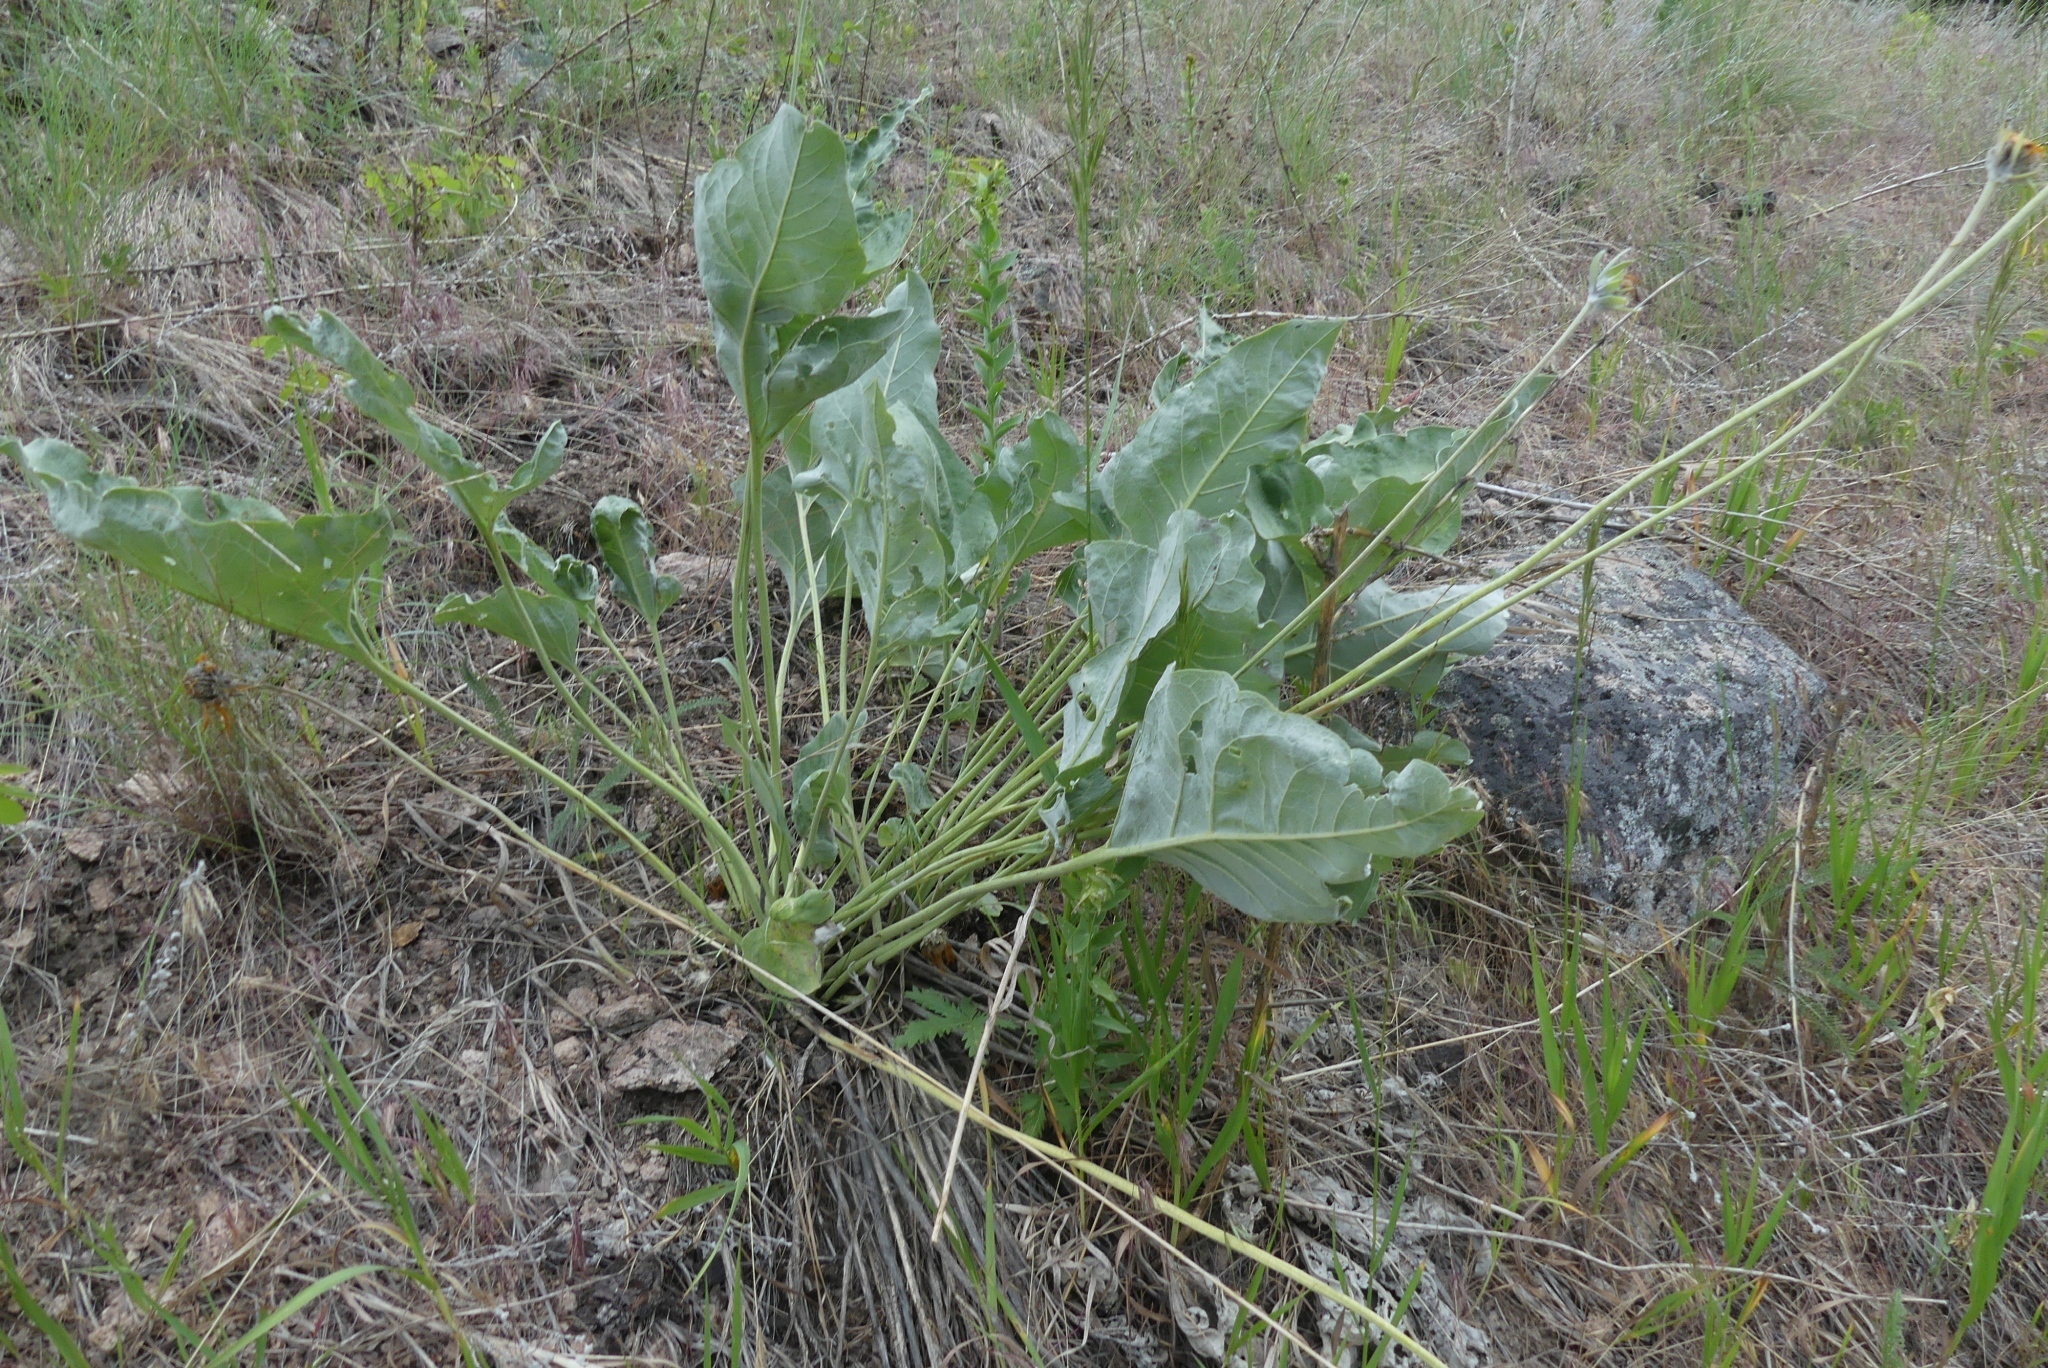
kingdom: Plantae
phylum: Tracheophyta
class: Magnoliopsida
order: Asterales
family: Asteraceae
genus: Wyethia
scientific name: Wyethia sagittata
